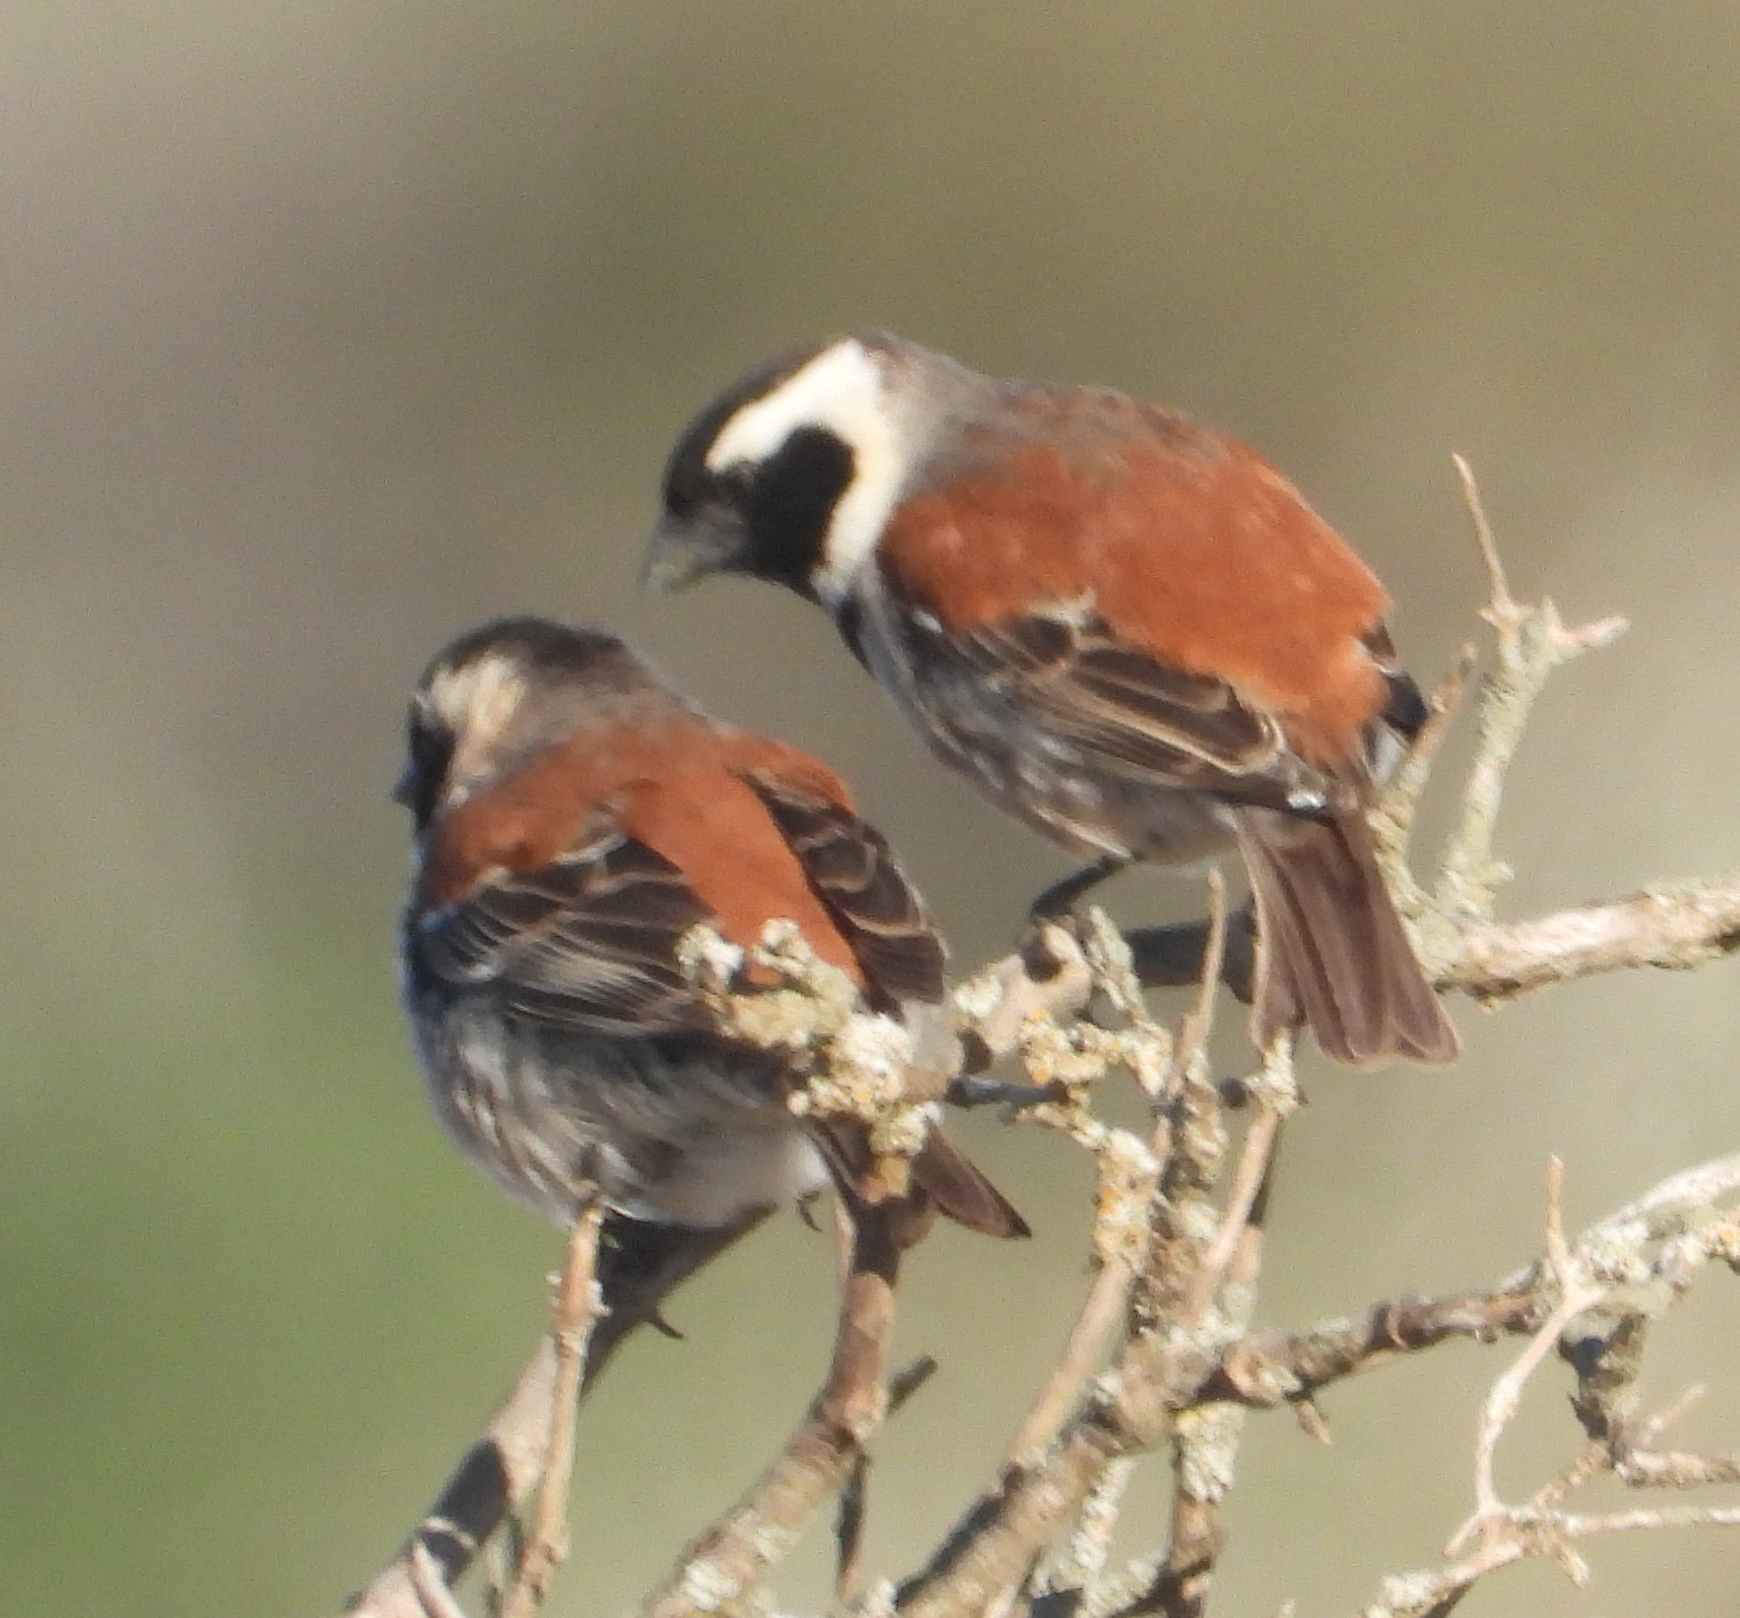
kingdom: Animalia
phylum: Chordata
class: Aves
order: Passeriformes
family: Passeridae
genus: Passer
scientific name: Passer melanurus
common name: Cape sparrow
